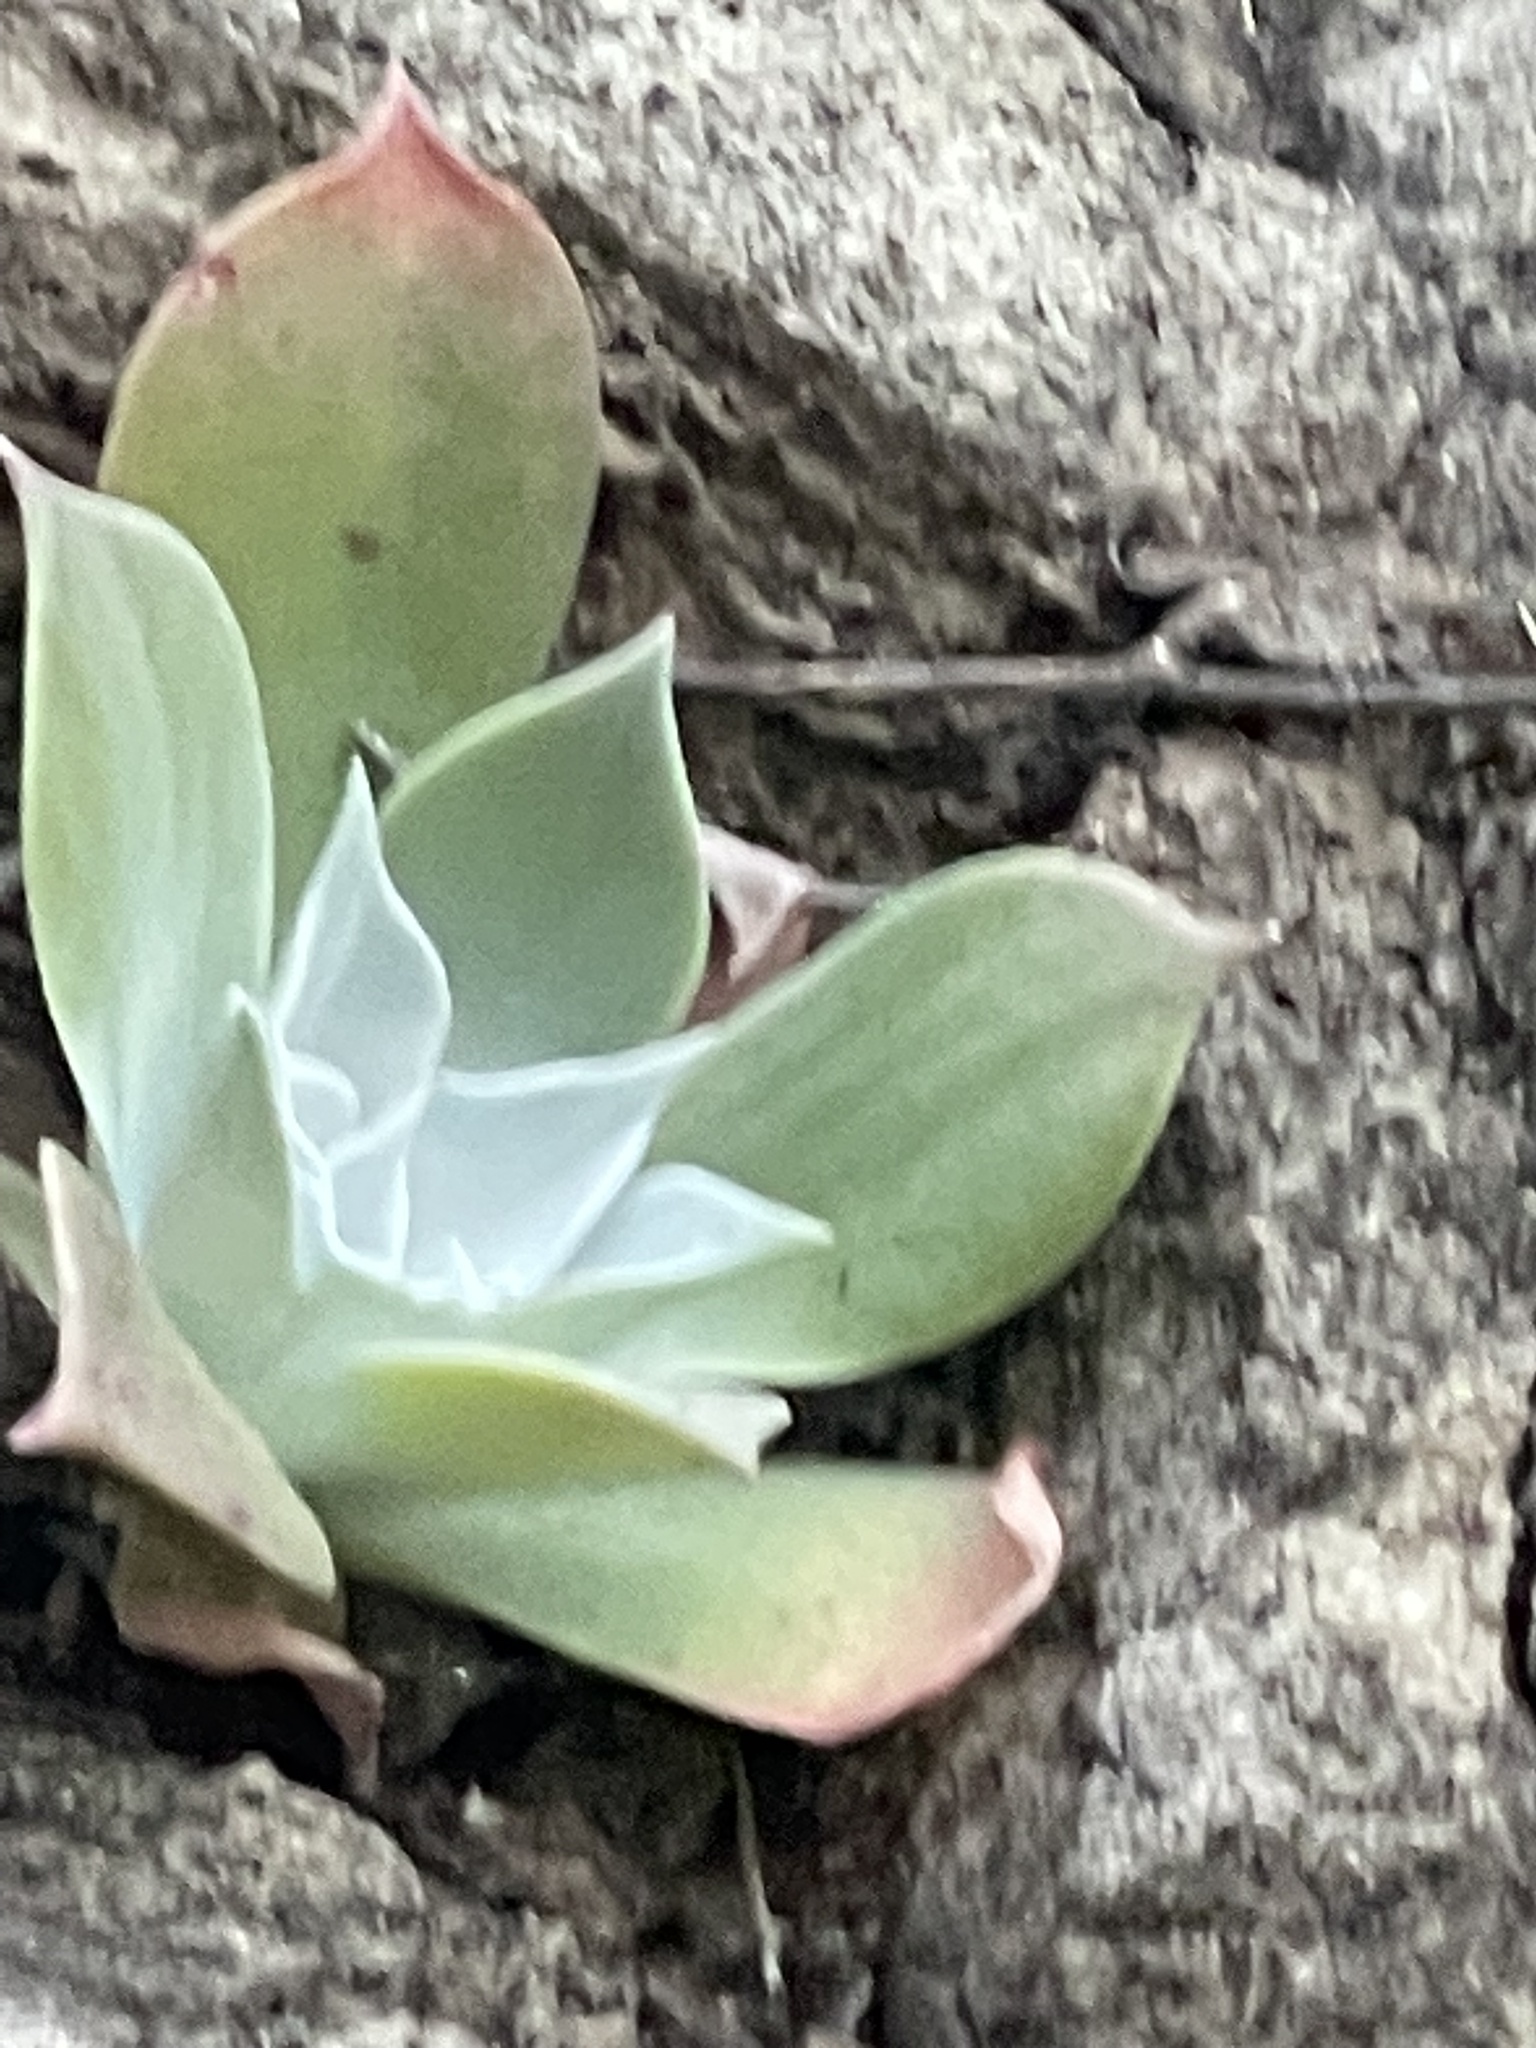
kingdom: Plantae
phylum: Tracheophyta
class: Magnoliopsida
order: Saxifragales
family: Crassulaceae
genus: Dudleya
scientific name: Dudleya pulverulenta
